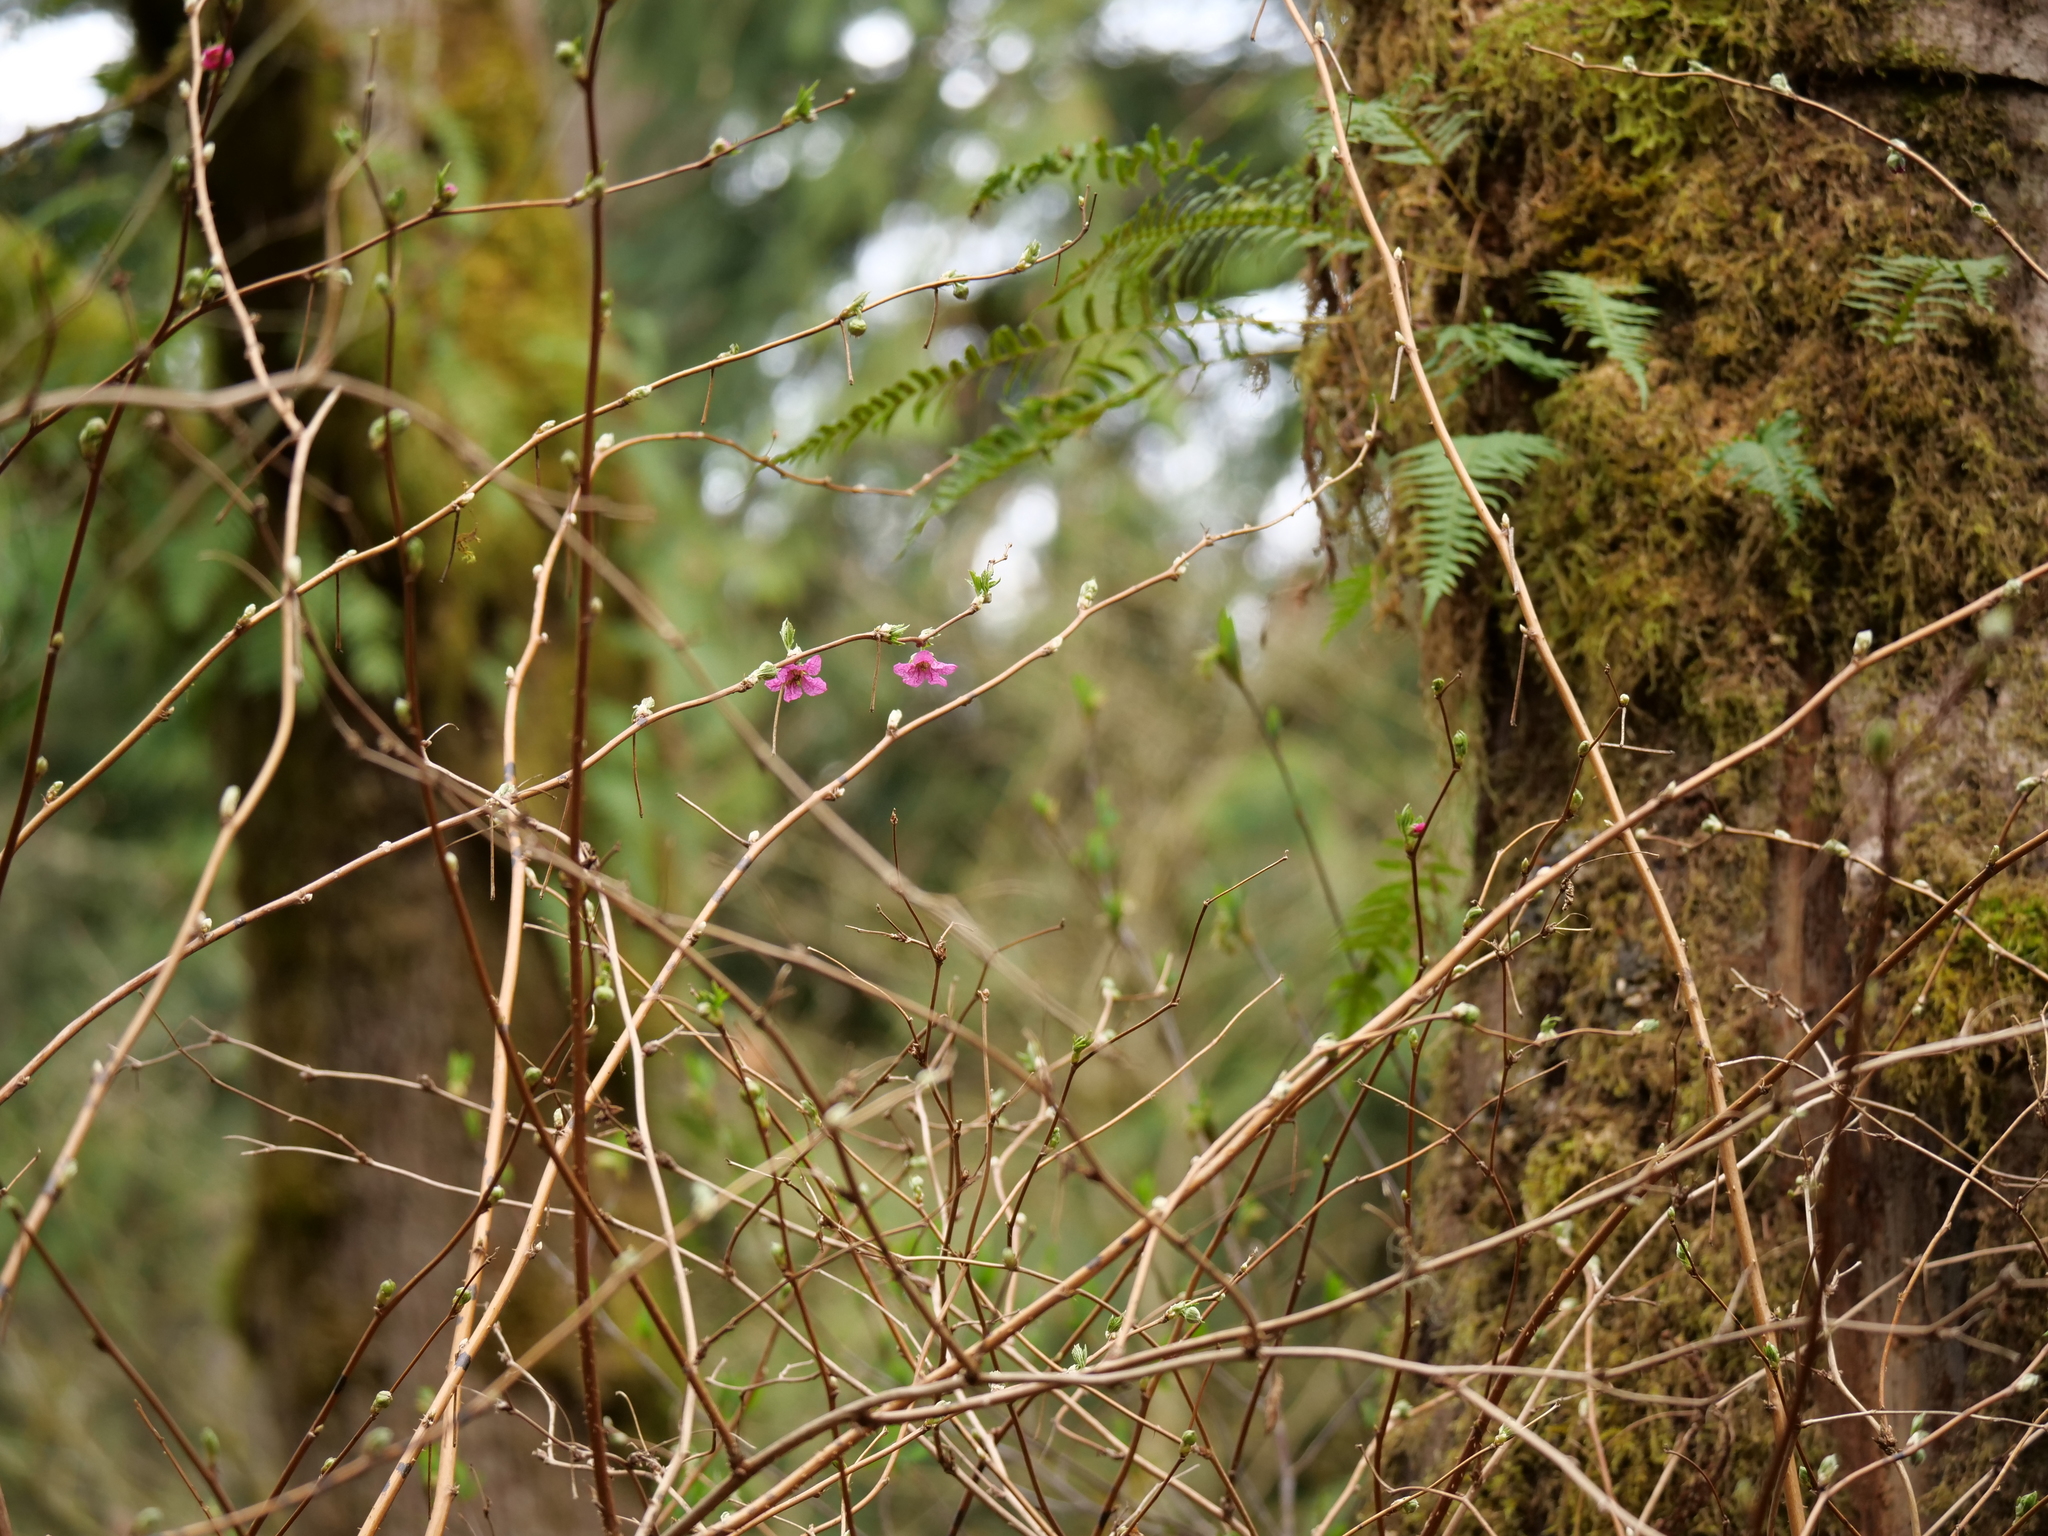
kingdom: Plantae
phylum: Tracheophyta
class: Magnoliopsida
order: Rosales
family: Rosaceae
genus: Rubus
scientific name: Rubus spectabilis
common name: Salmonberry
